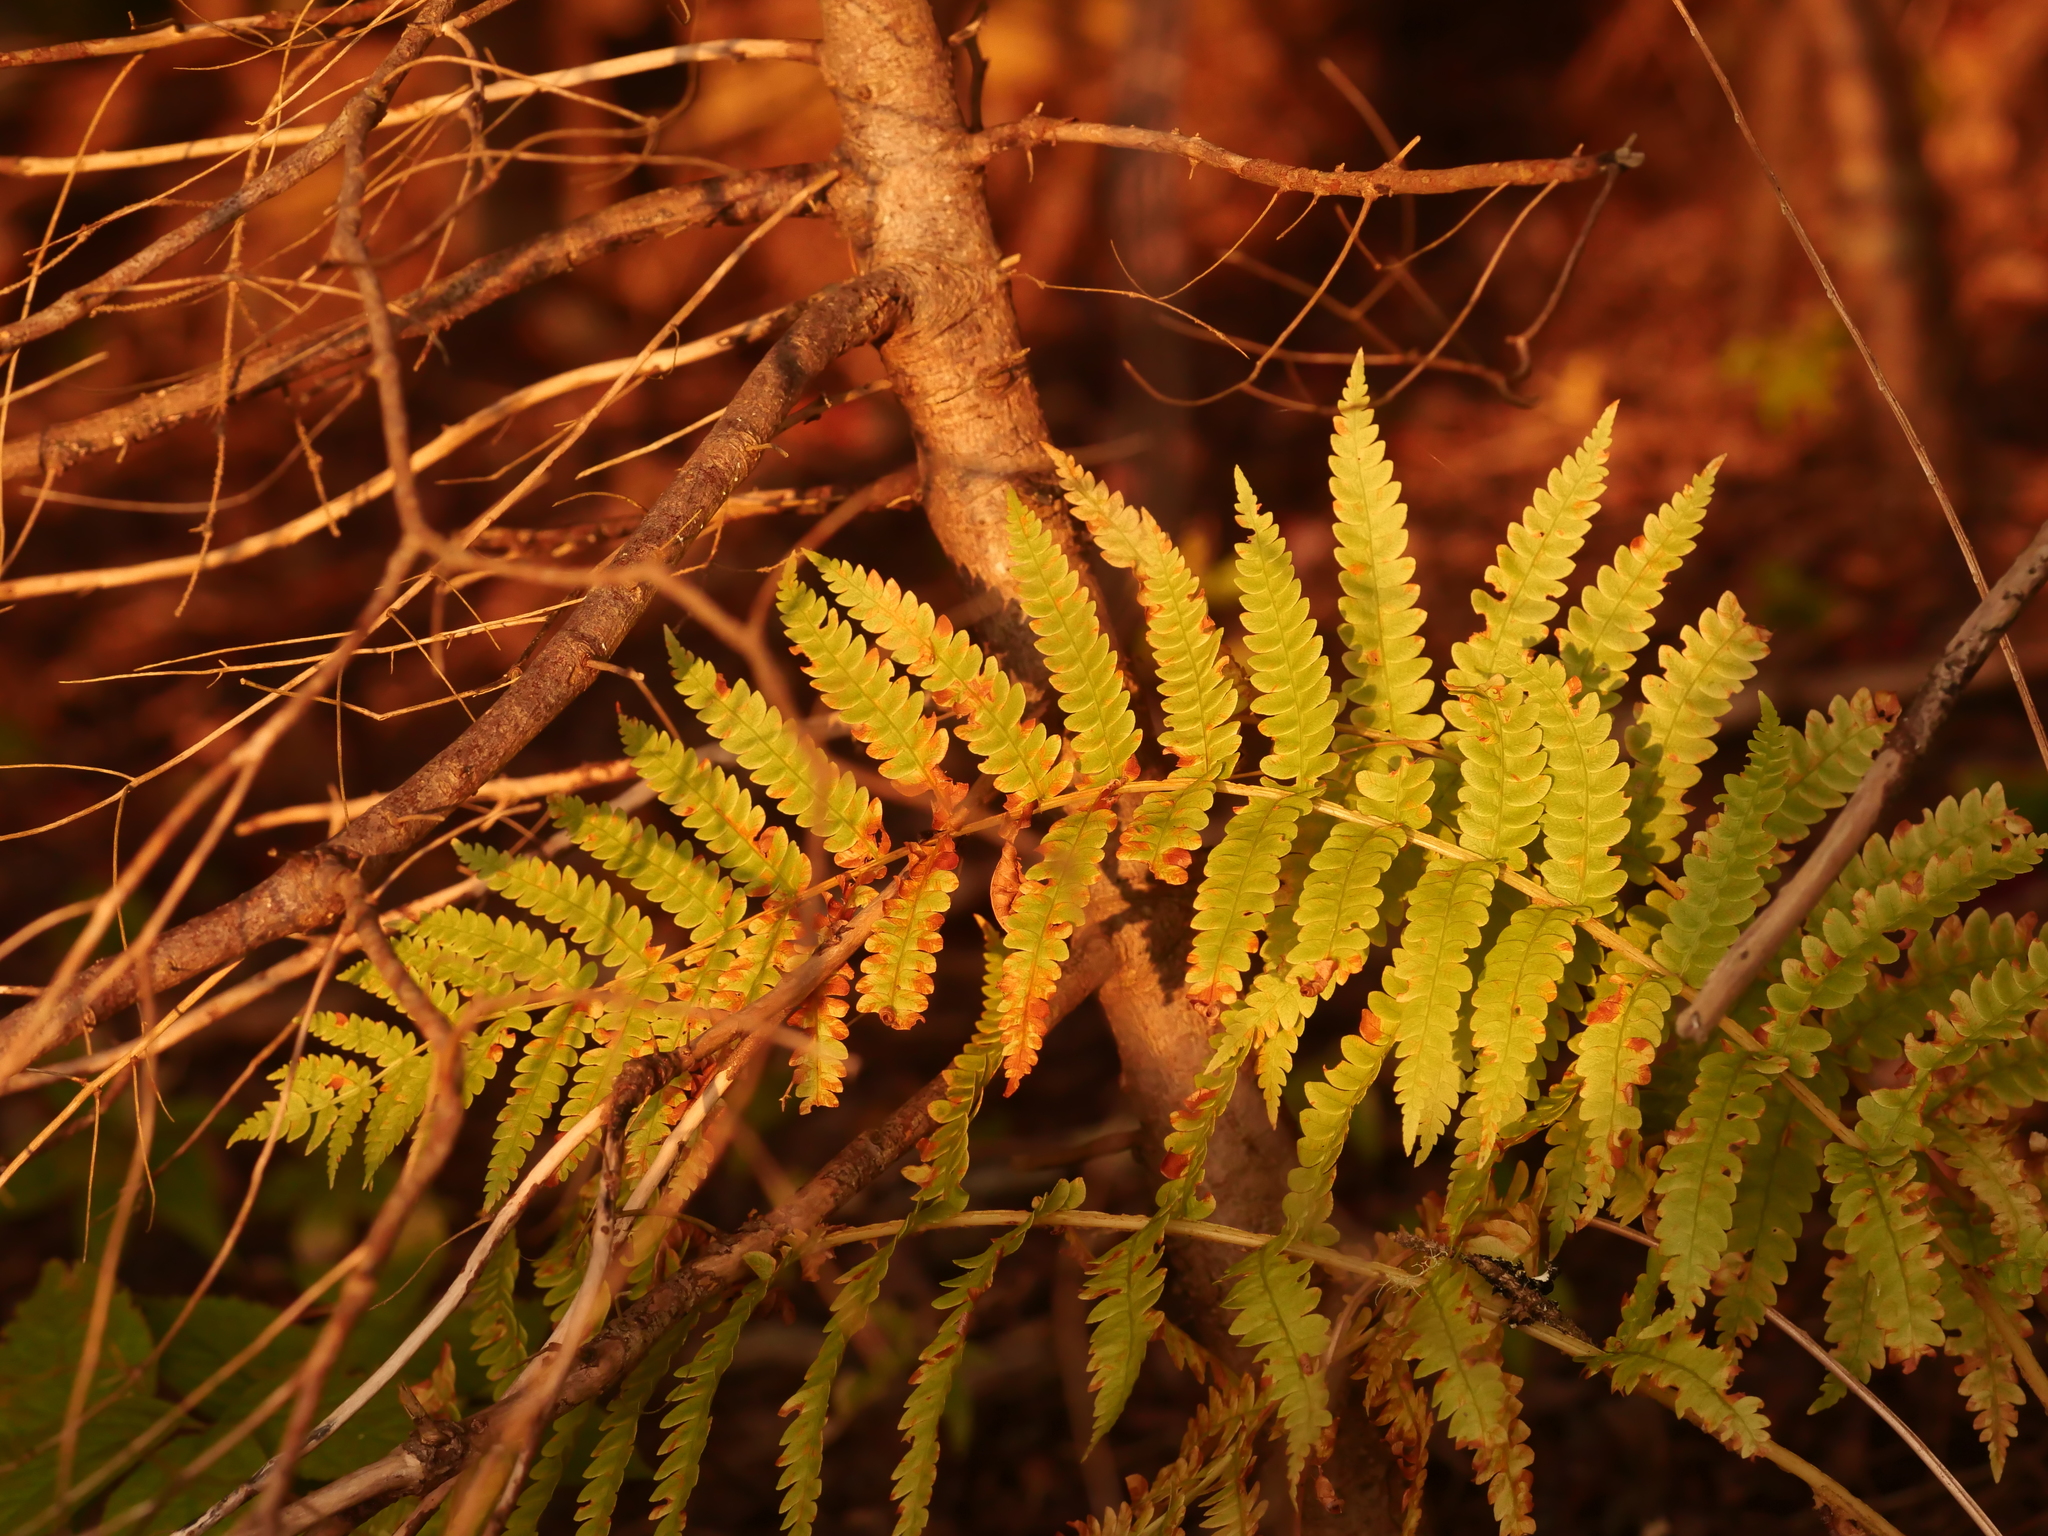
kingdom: Plantae
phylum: Tracheophyta
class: Polypodiopsida
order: Osmundales
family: Osmundaceae
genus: Osmundastrum
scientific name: Osmundastrum cinnamomeum
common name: Cinnamon fern
